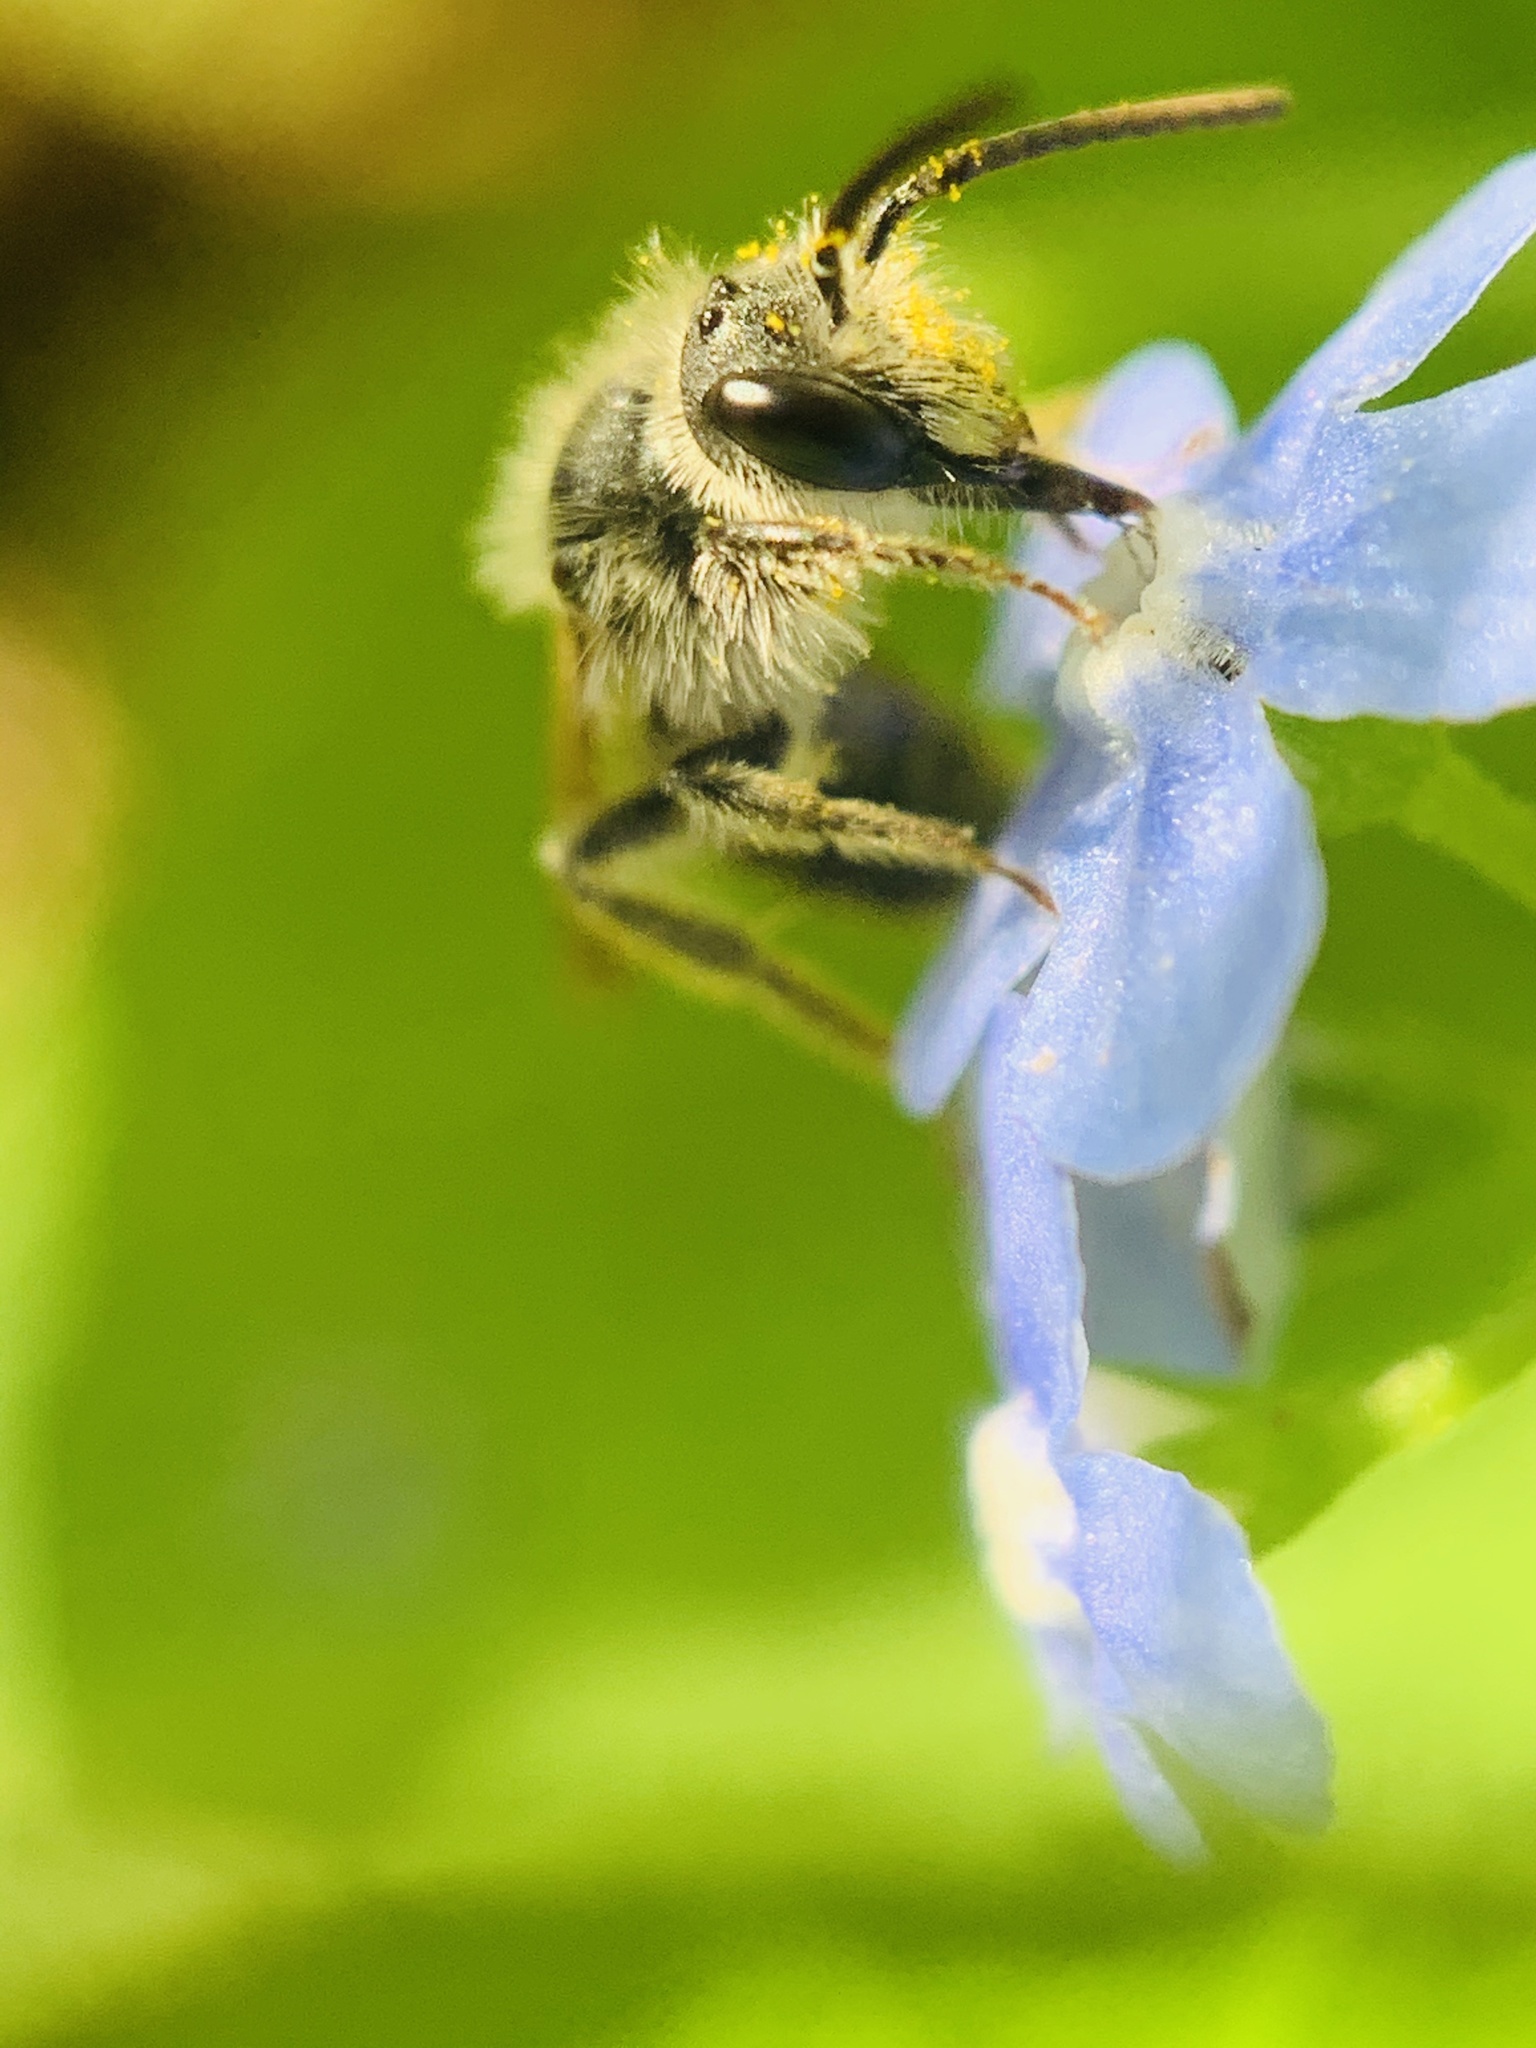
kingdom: Animalia
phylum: Arthropoda
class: Insecta
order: Hymenoptera
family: Andrenidae
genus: Andrena
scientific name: Andrena
